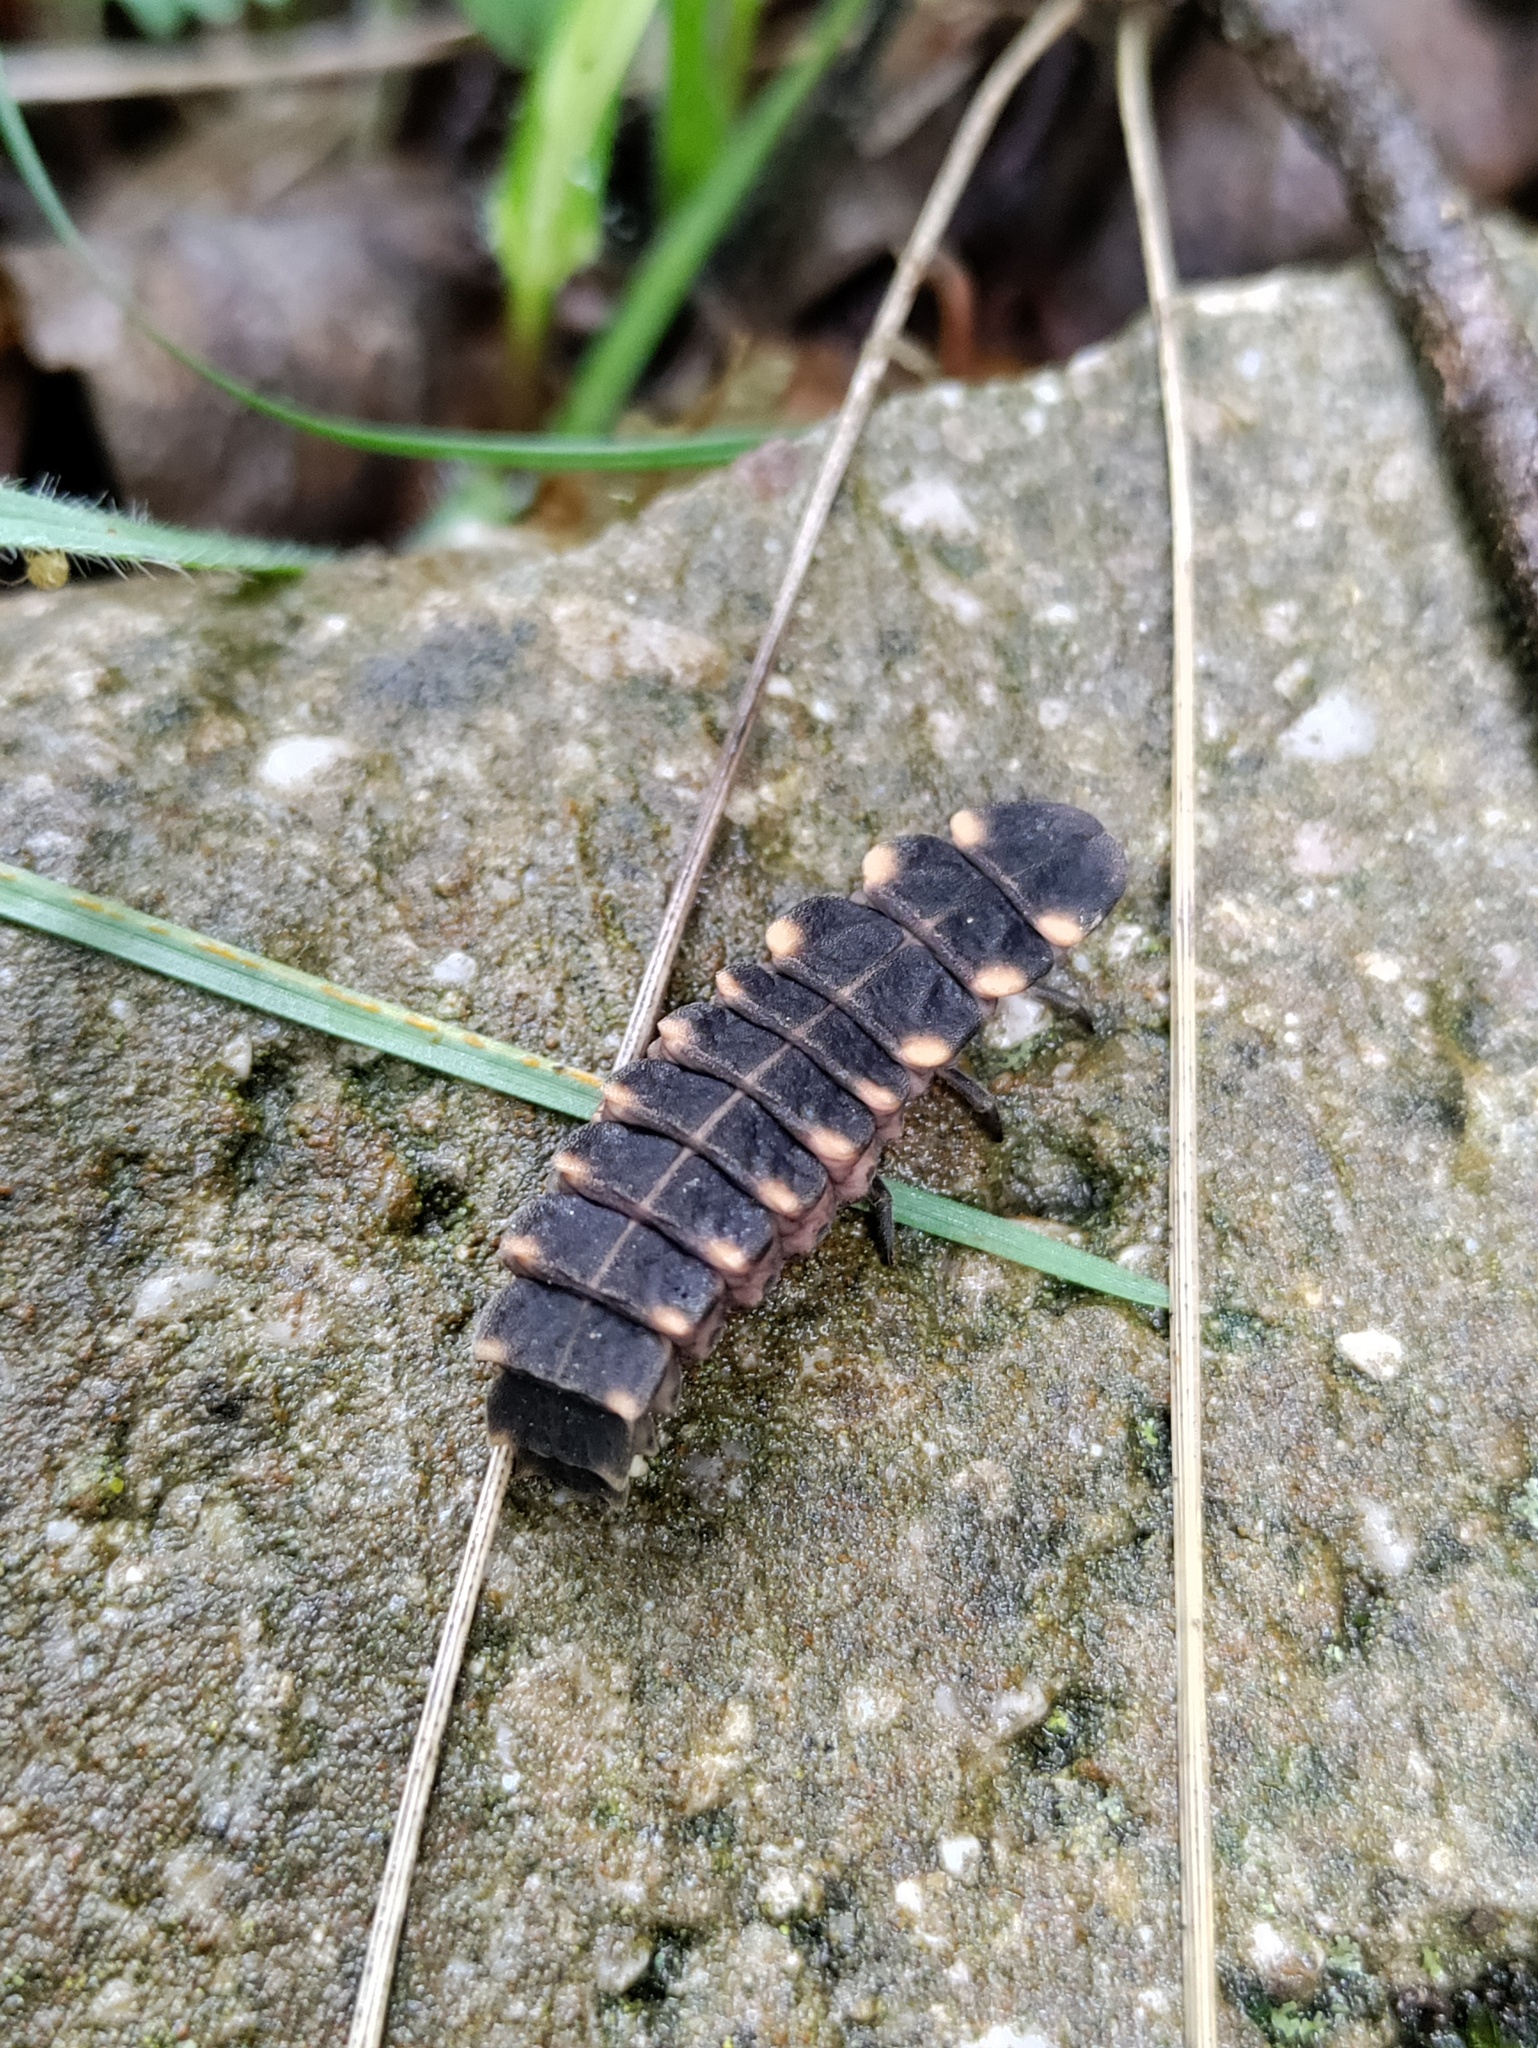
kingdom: Animalia
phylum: Arthropoda
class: Insecta
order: Coleoptera
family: Lampyridae
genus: Lampyris
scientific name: Lampyris noctiluca
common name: Glow-worm
